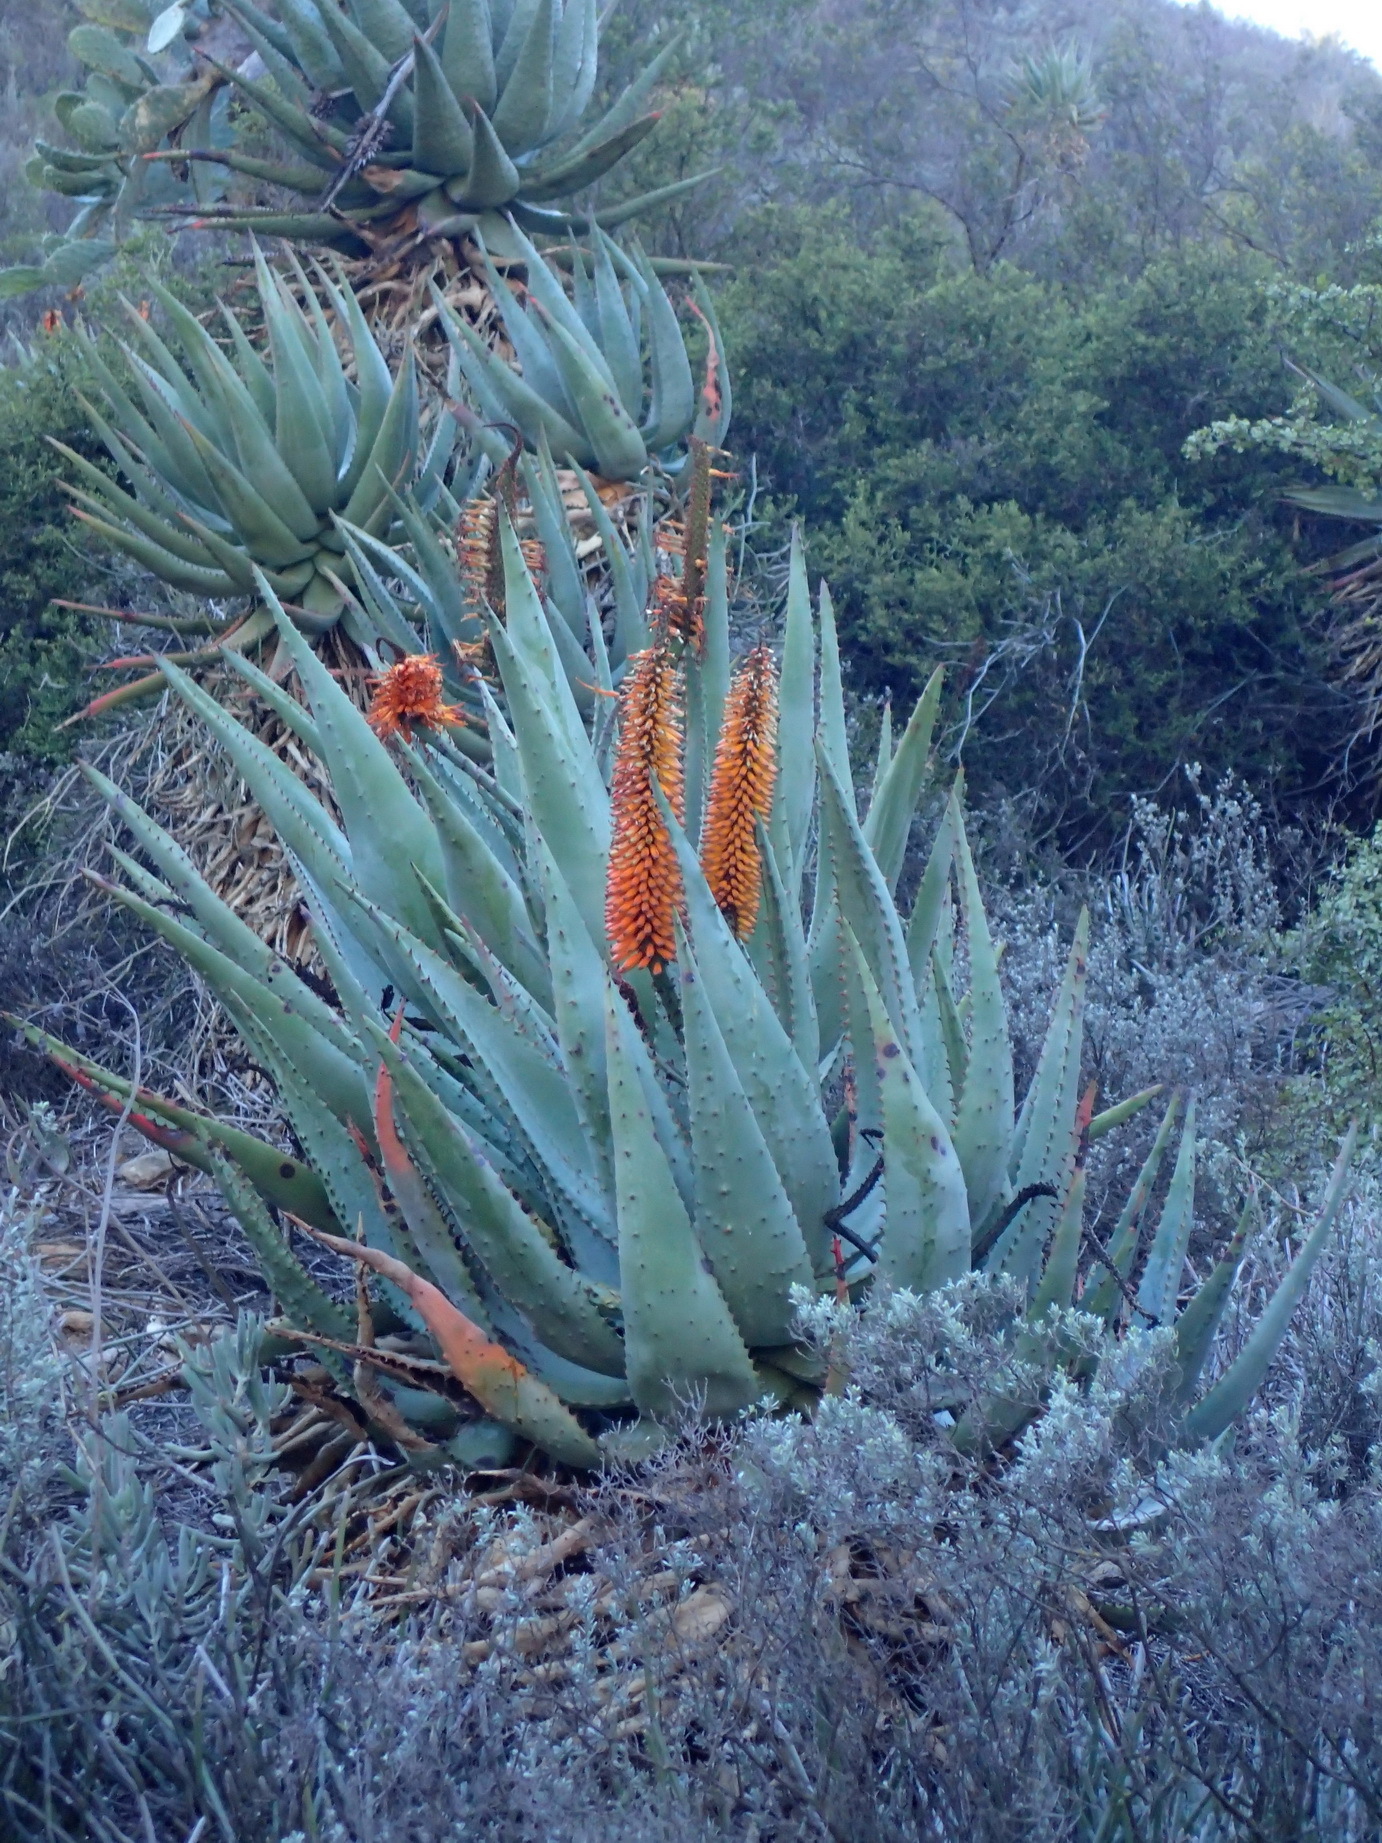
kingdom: Plantae
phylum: Tracheophyta
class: Liliopsida
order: Asparagales
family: Asphodelaceae
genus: Aloe
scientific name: Aloe ferox
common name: Bitter aloe
